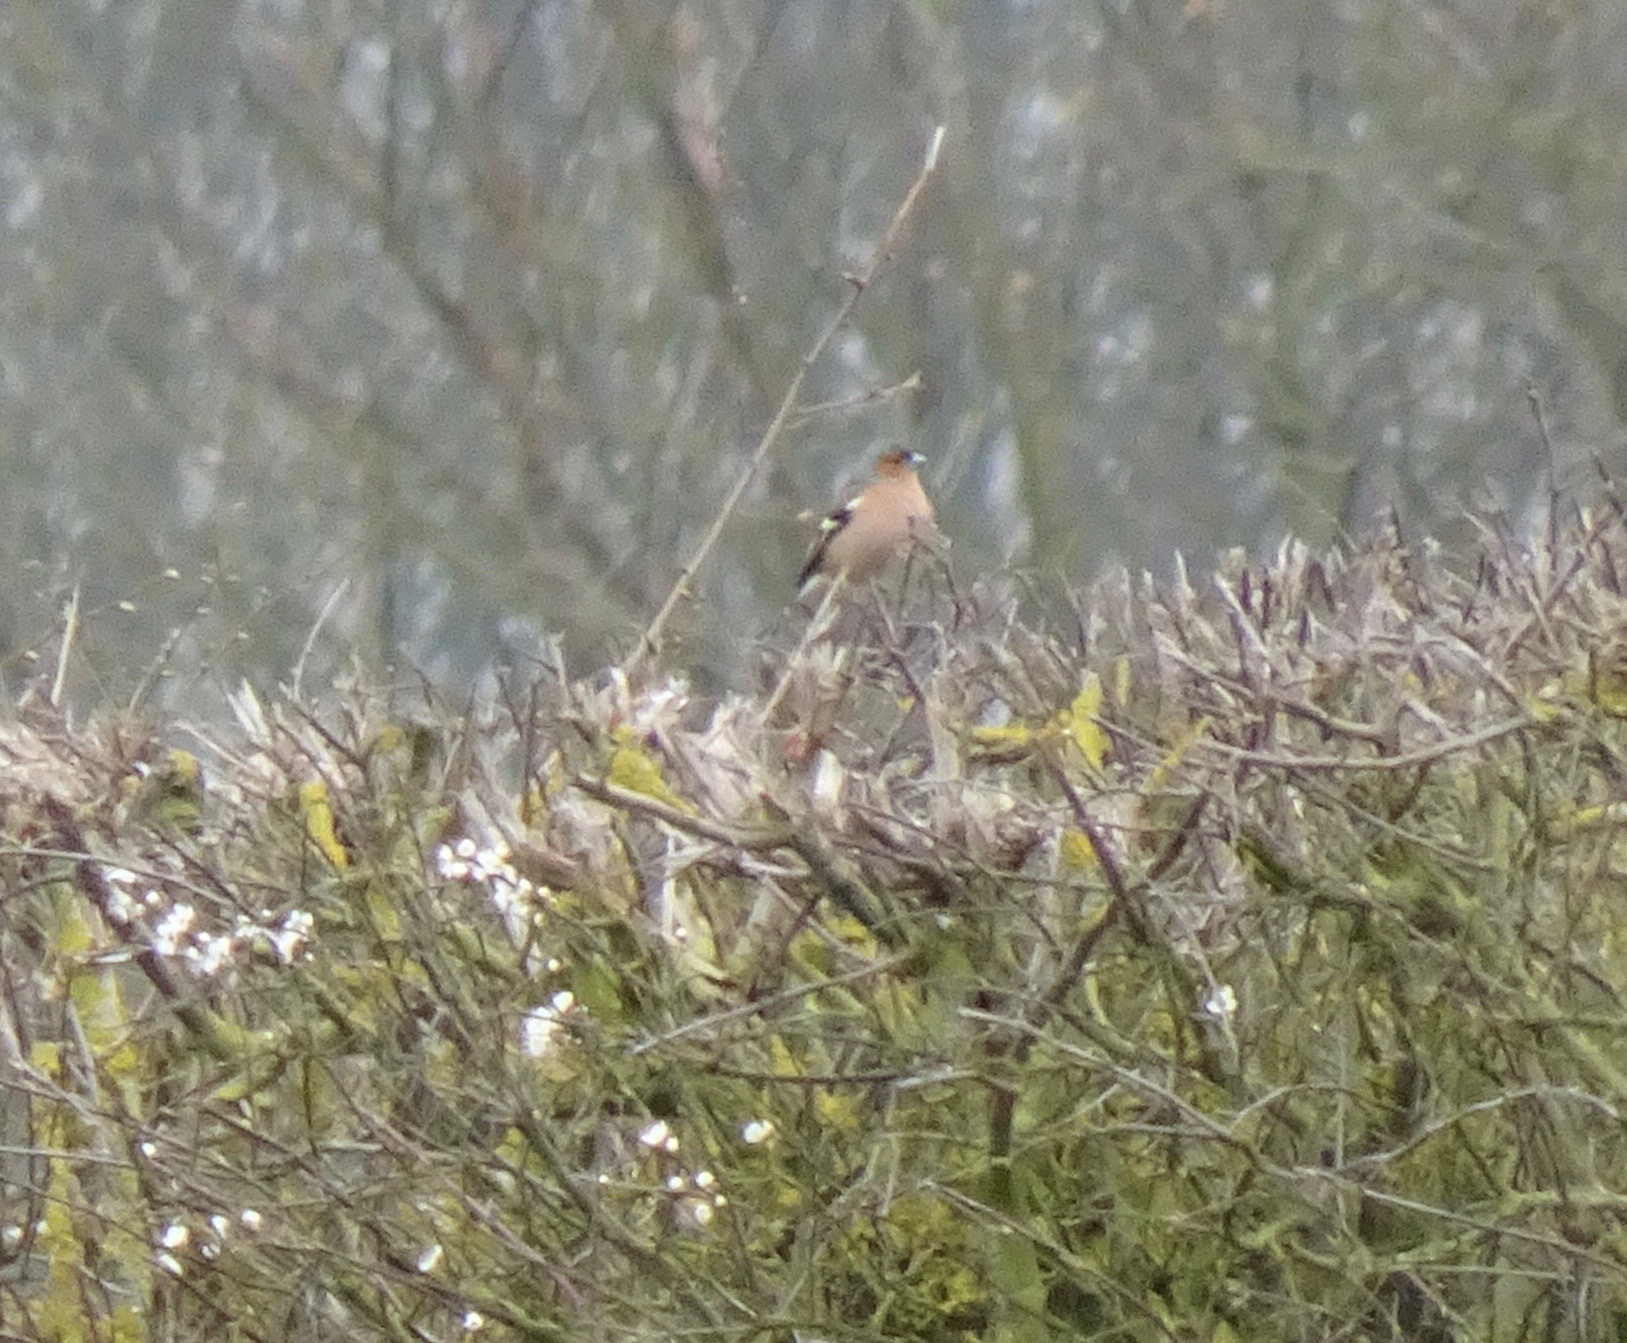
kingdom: Animalia
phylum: Chordata
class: Aves
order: Passeriformes
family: Fringillidae
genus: Fringilla
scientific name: Fringilla coelebs
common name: Common chaffinch
